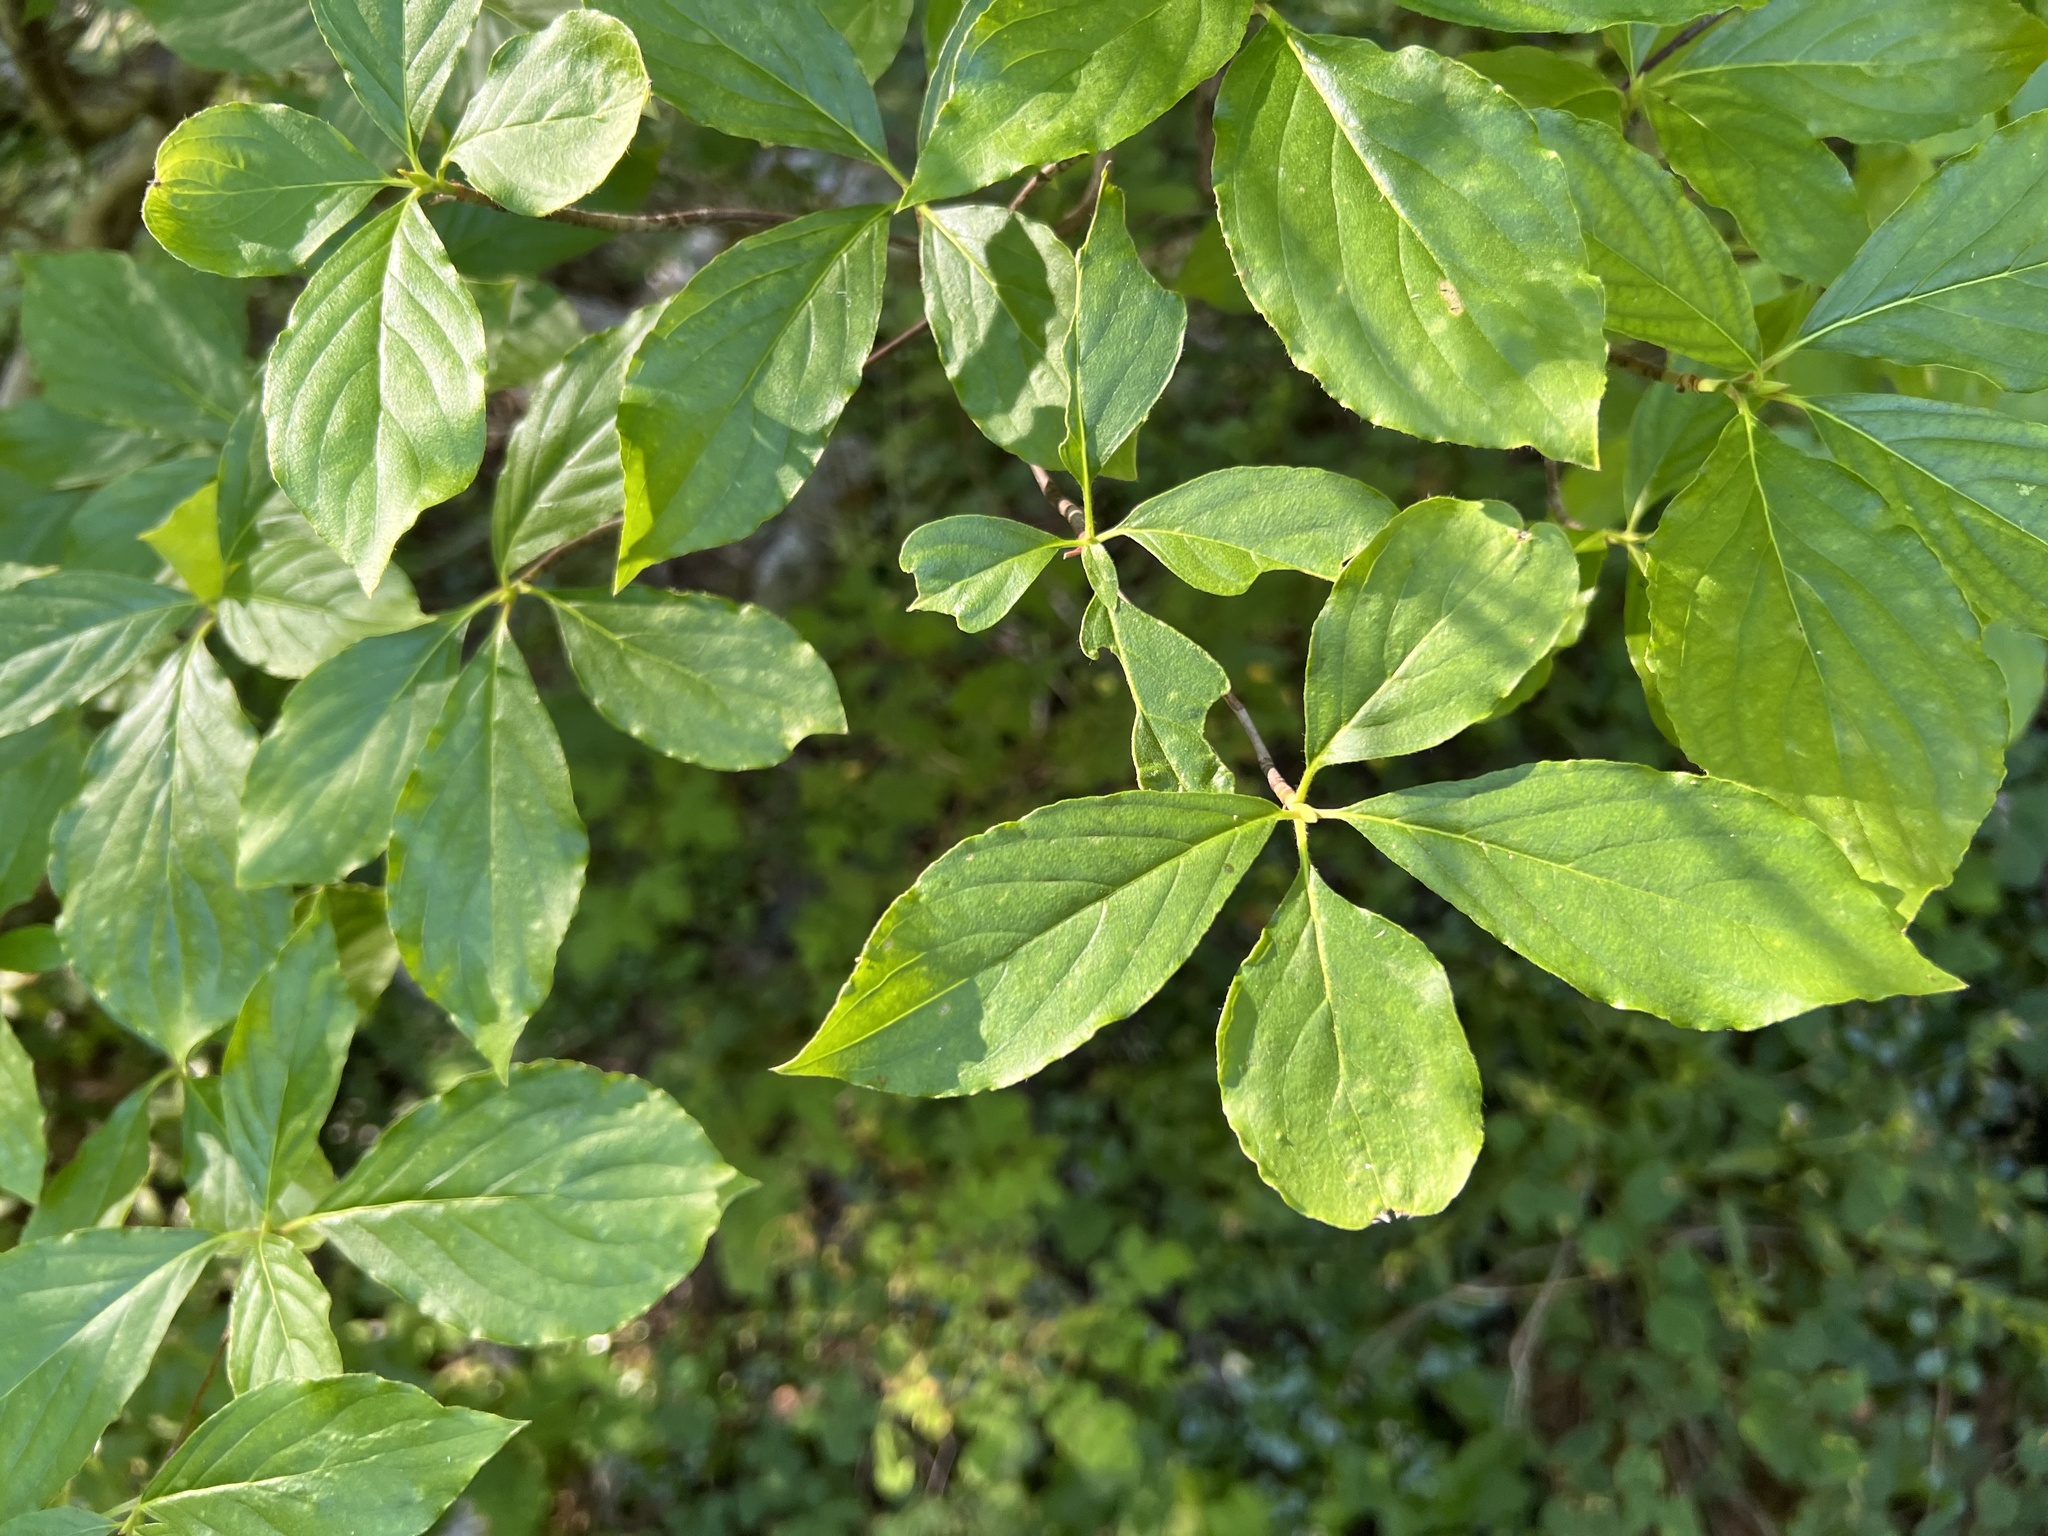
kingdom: Plantae
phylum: Tracheophyta
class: Magnoliopsida
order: Cornales
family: Cornaceae
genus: Cornus
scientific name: Cornus nuttallii
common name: Pacific dogwood
